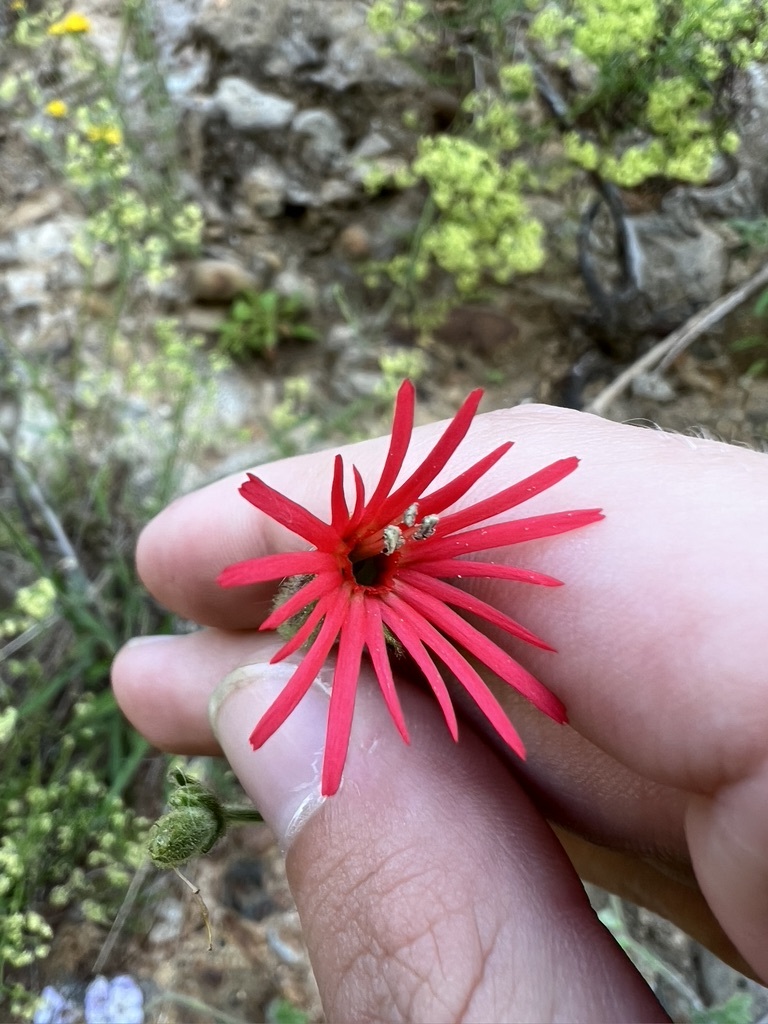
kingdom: Plantae
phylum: Tracheophyta
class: Magnoliopsida
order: Caryophyllales
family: Caryophyllaceae
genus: Silene
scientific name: Silene laciniata
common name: Indian-pink
